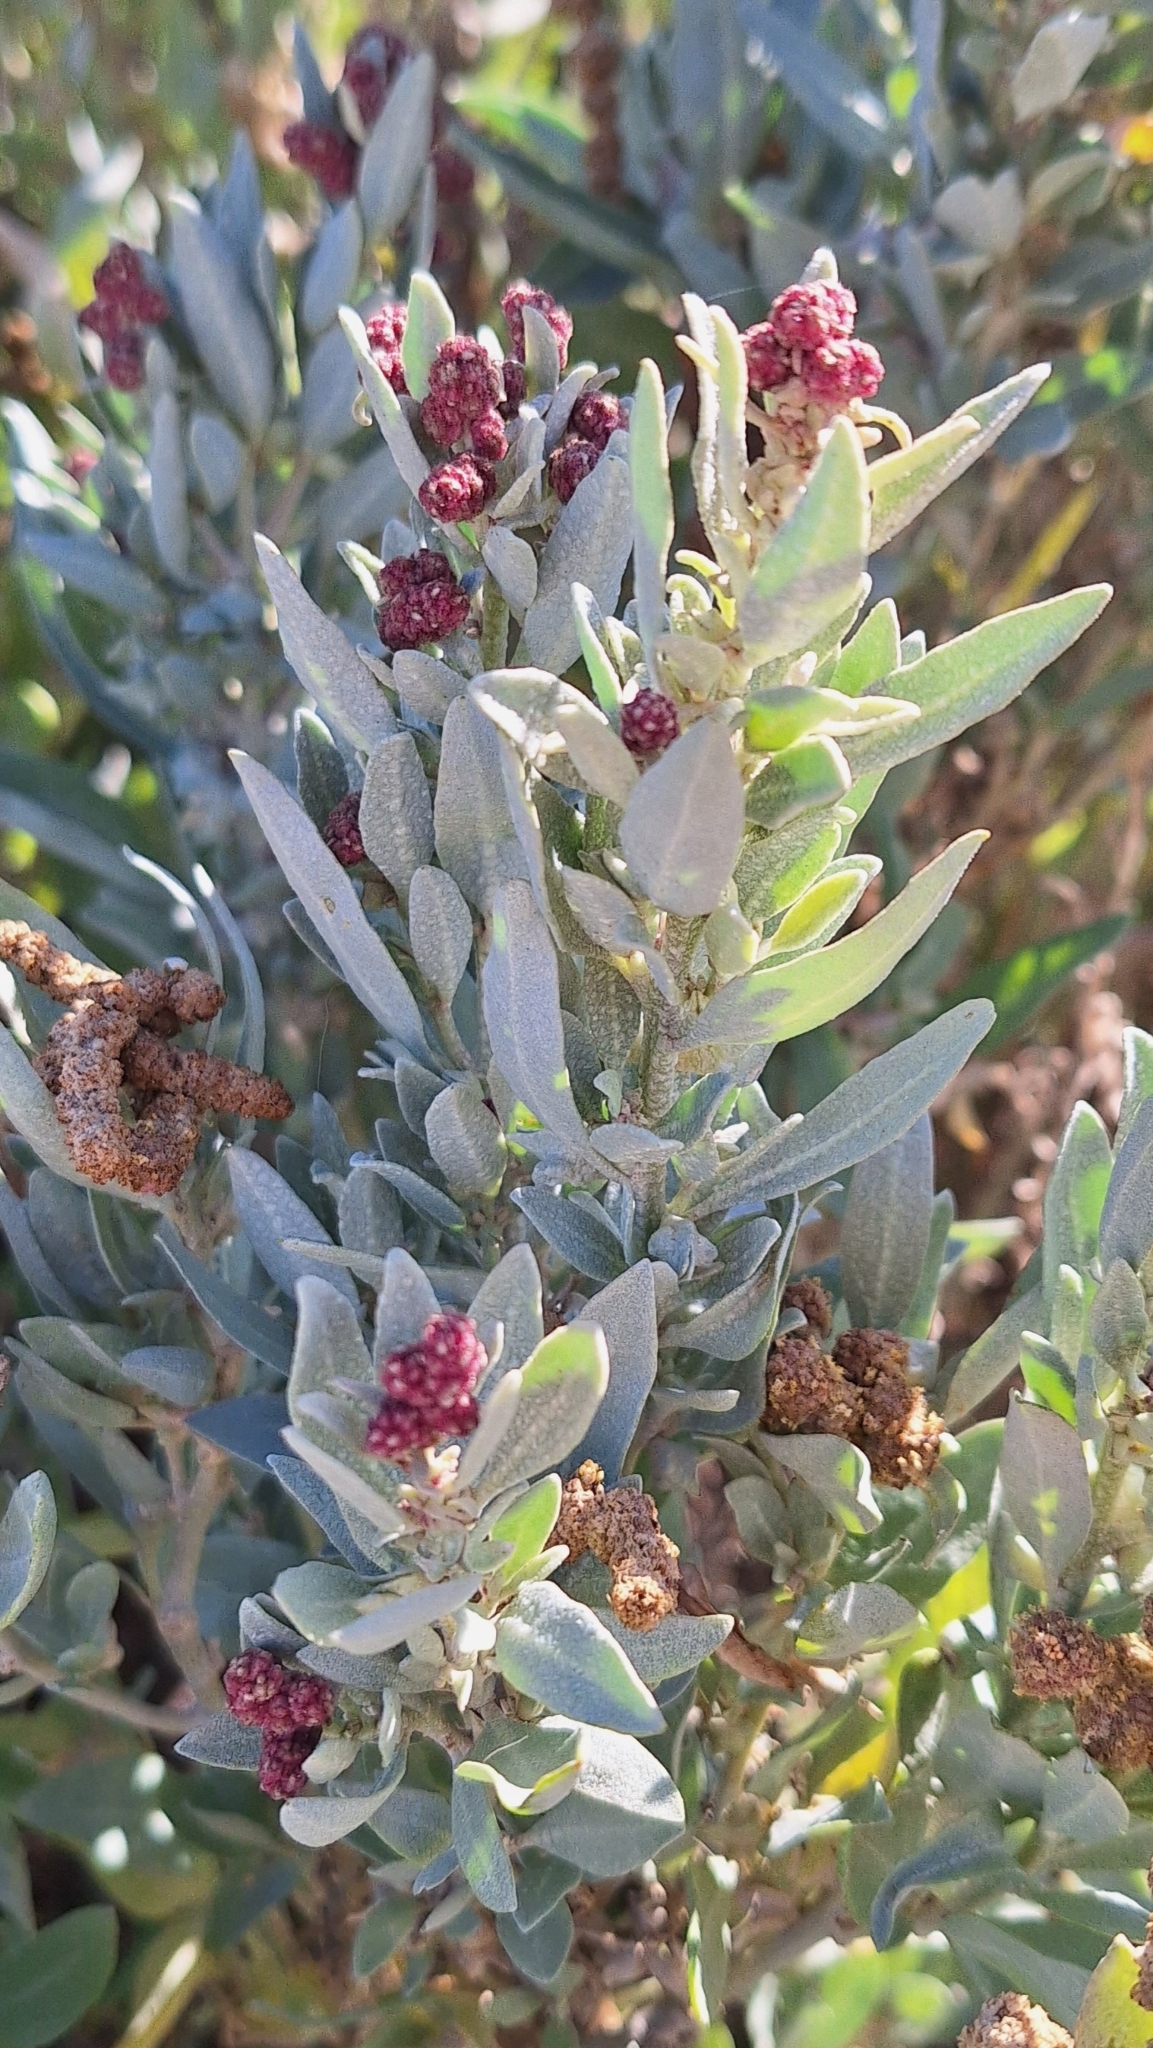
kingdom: Plantae
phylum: Tracheophyta
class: Magnoliopsida
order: Caryophyllales
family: Amaranthaceae
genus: Atriplex
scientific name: Atriplex cinerea
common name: Grey saltbush
